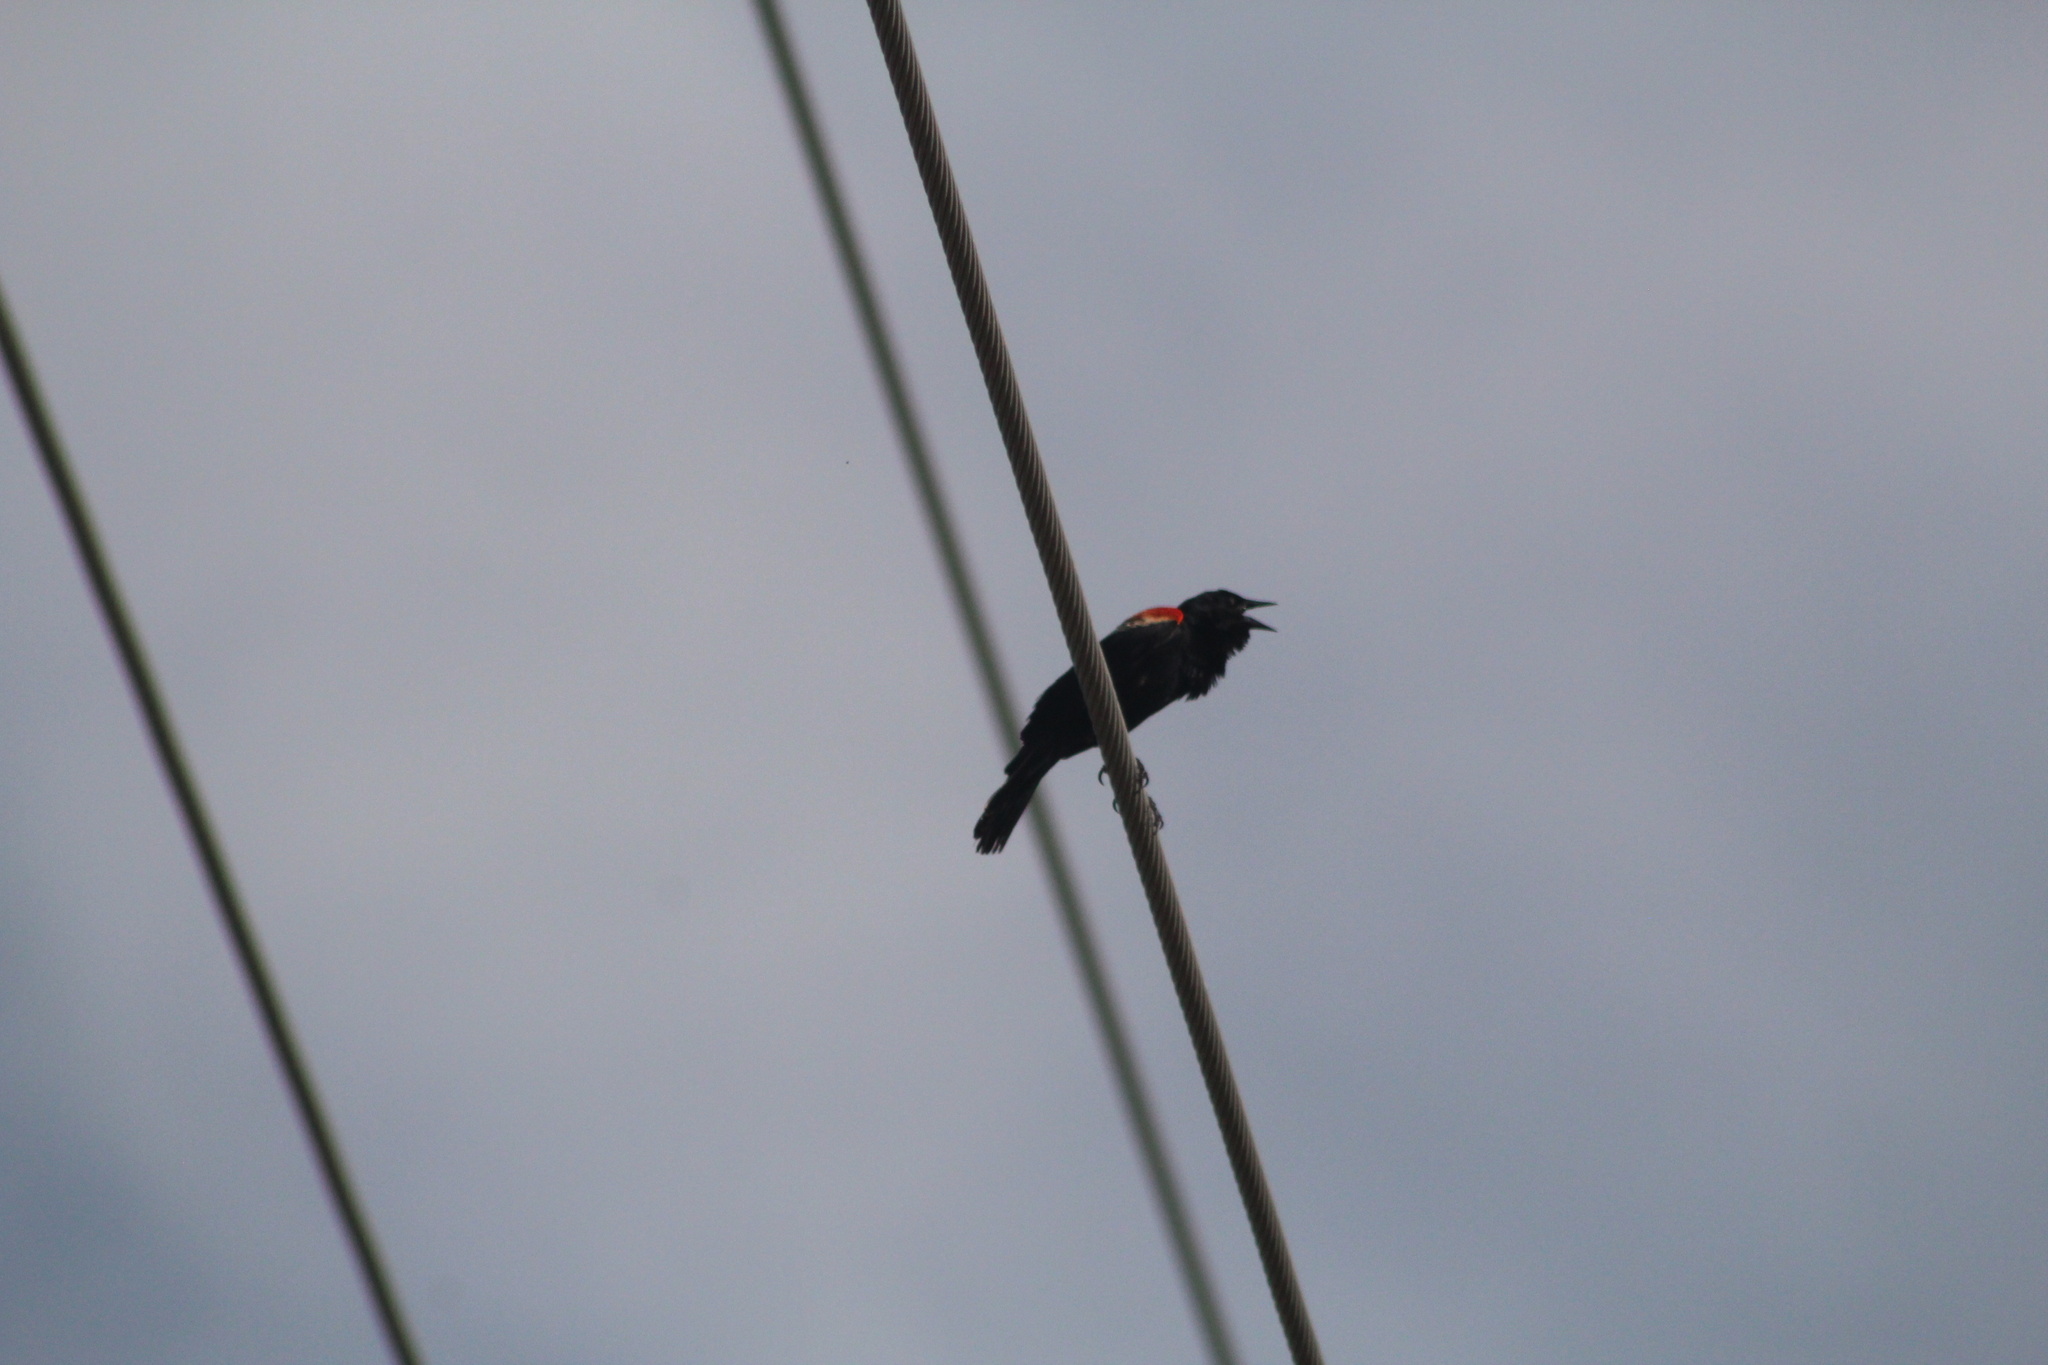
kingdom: Animalia
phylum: Chordata
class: Aves
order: Passeriformes
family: Icteridae
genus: Agelaius
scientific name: Agelaius phoeniceus
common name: Red-winged blackbird
